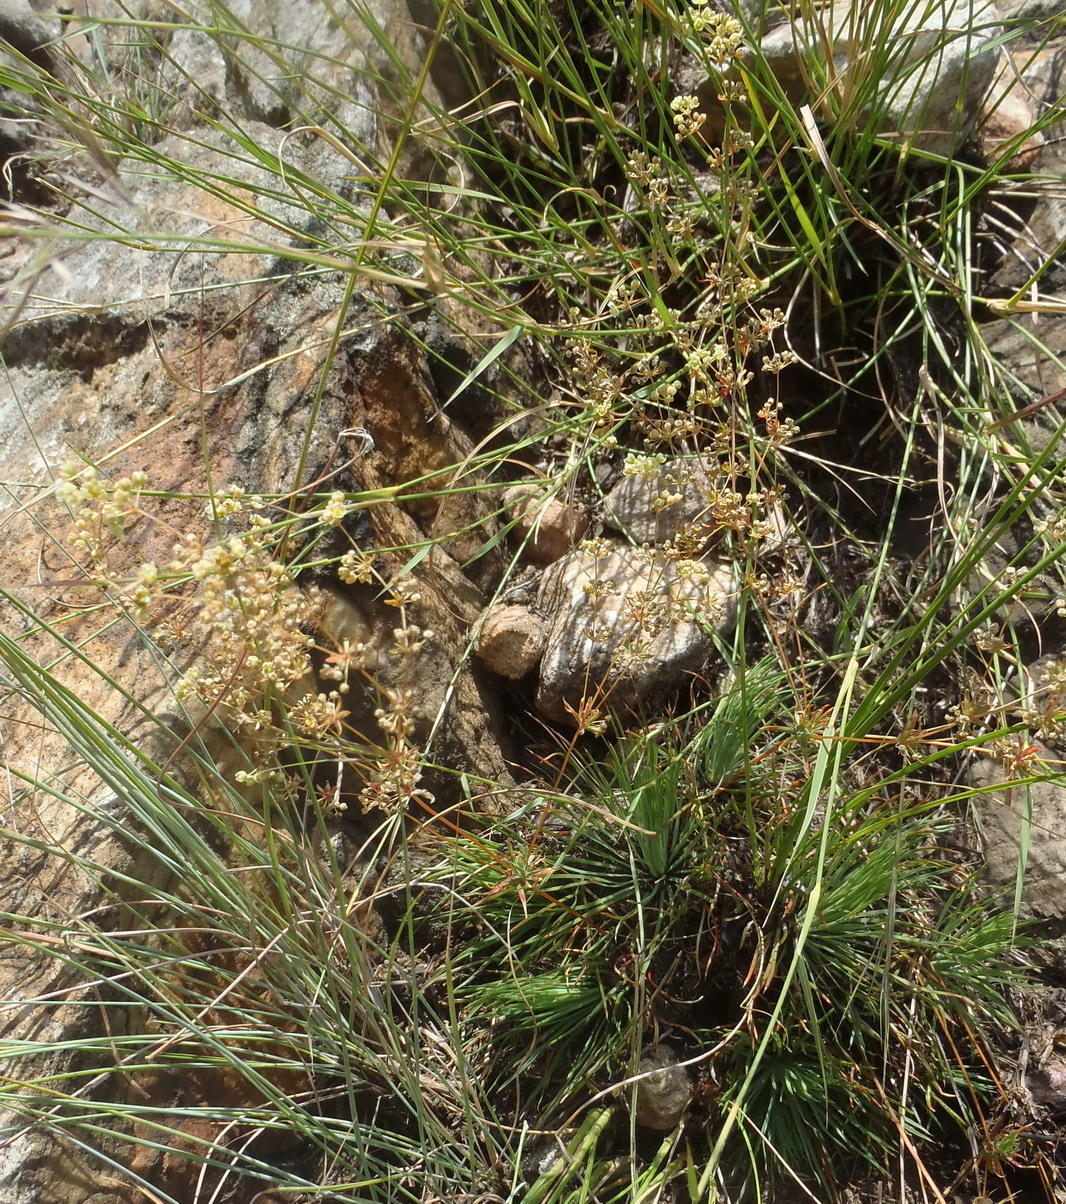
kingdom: Plantae
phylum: Tracheophyta
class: Magnoliopsida
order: Caryophyllales
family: Molluginaceae
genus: Psammotropha
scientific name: Psammotropha myriantha
